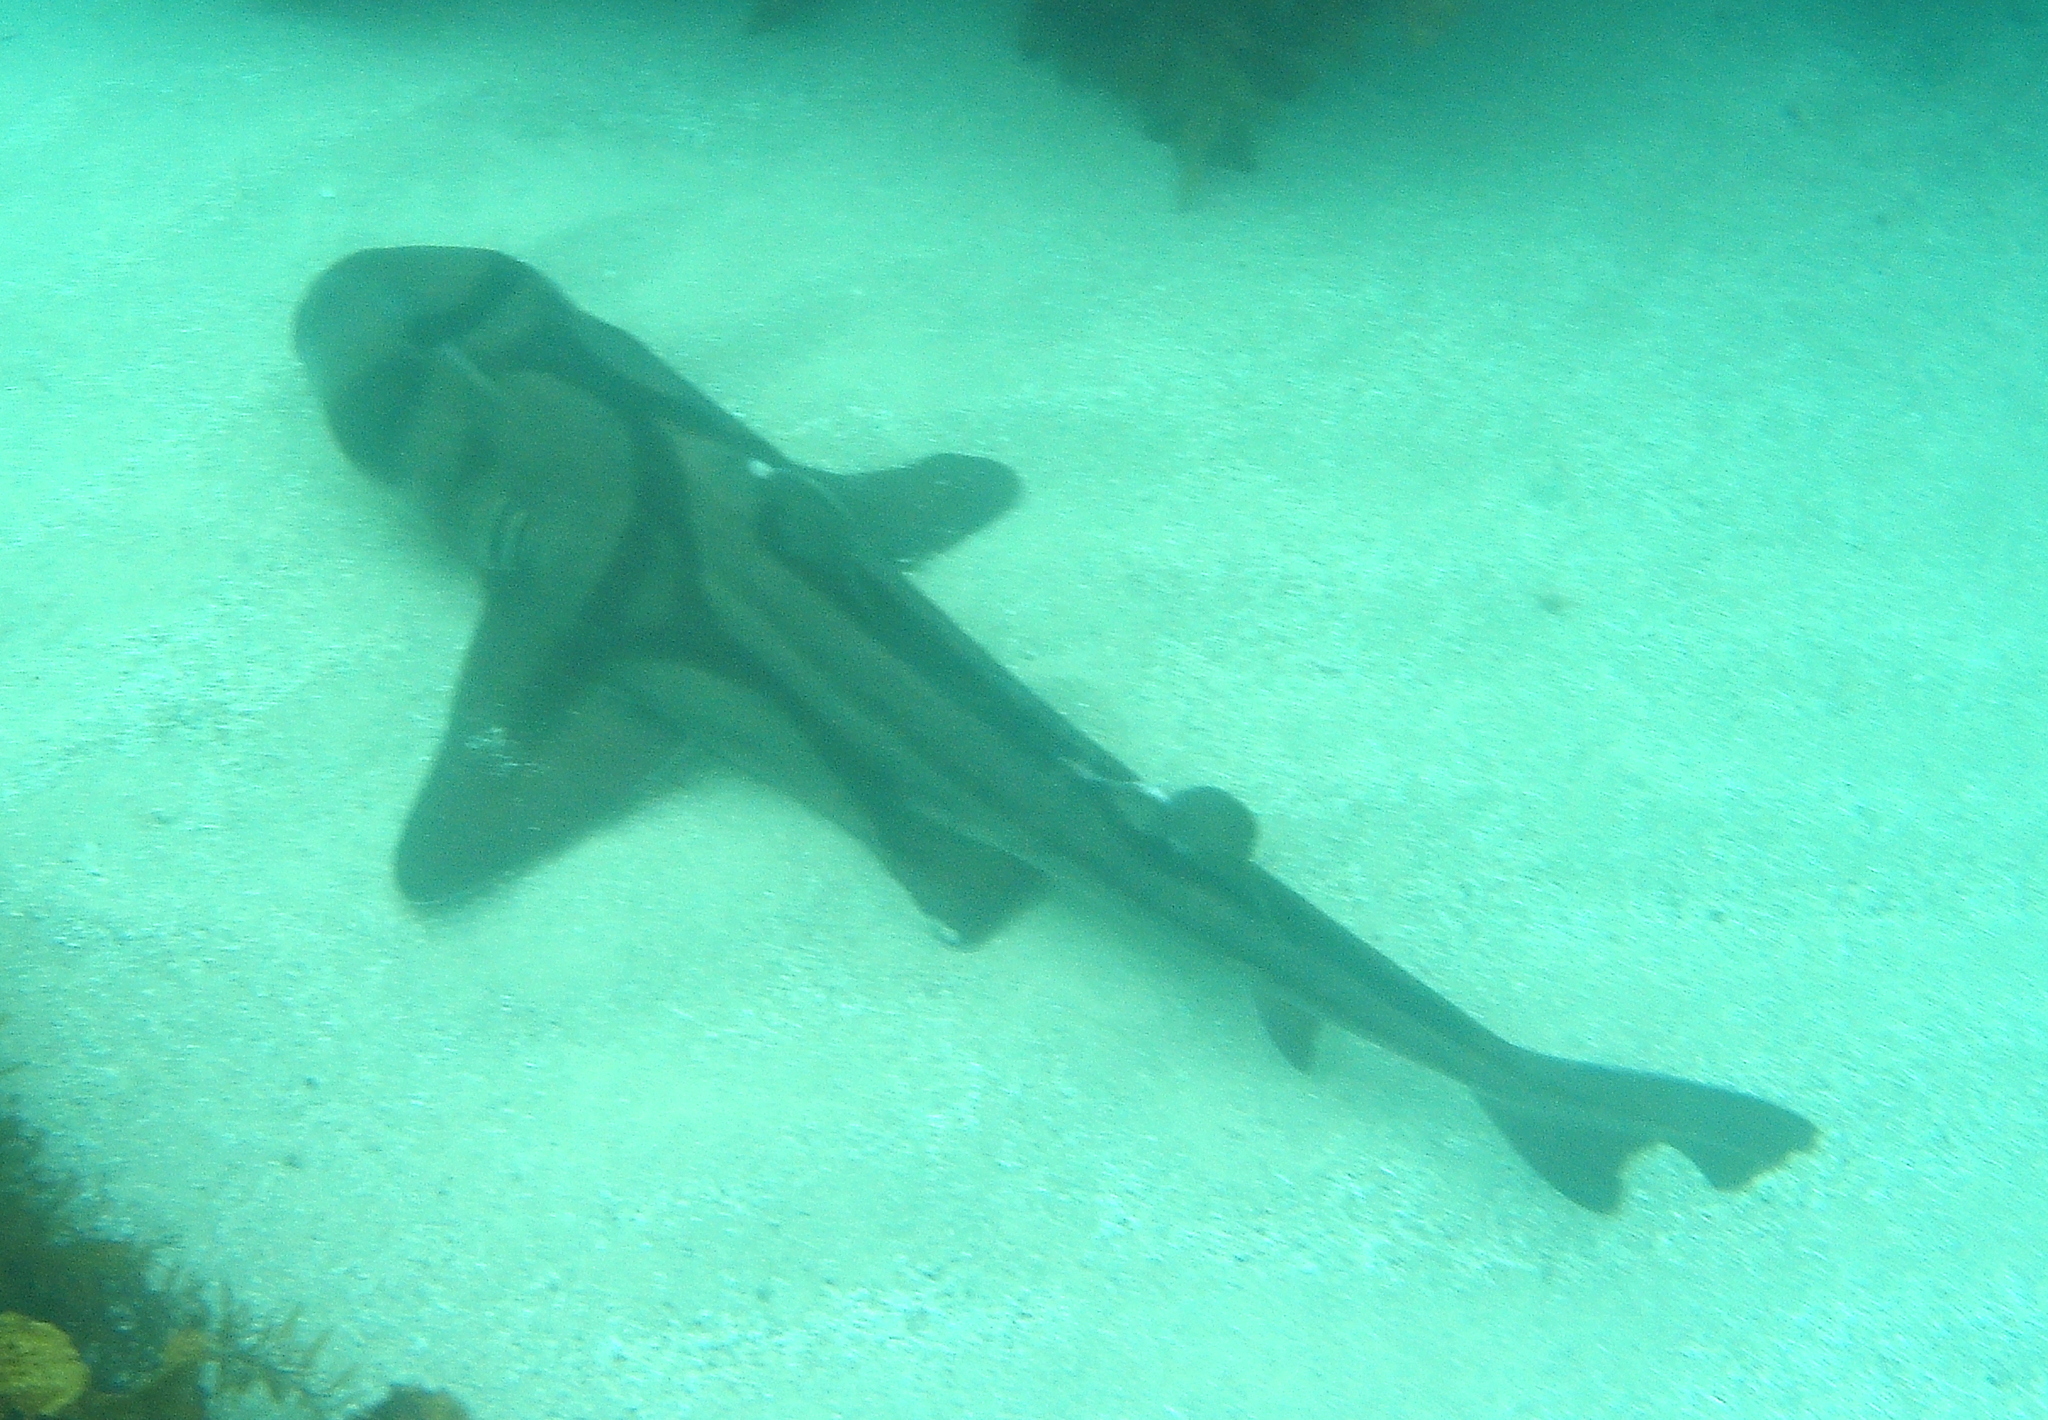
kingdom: Animalia
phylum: Chordata
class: Elasmobranchii
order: Heterodontiformes
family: Heterodontidae
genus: Heterodontus
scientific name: Heterodontus portusjacksoni
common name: Port jackson shark
